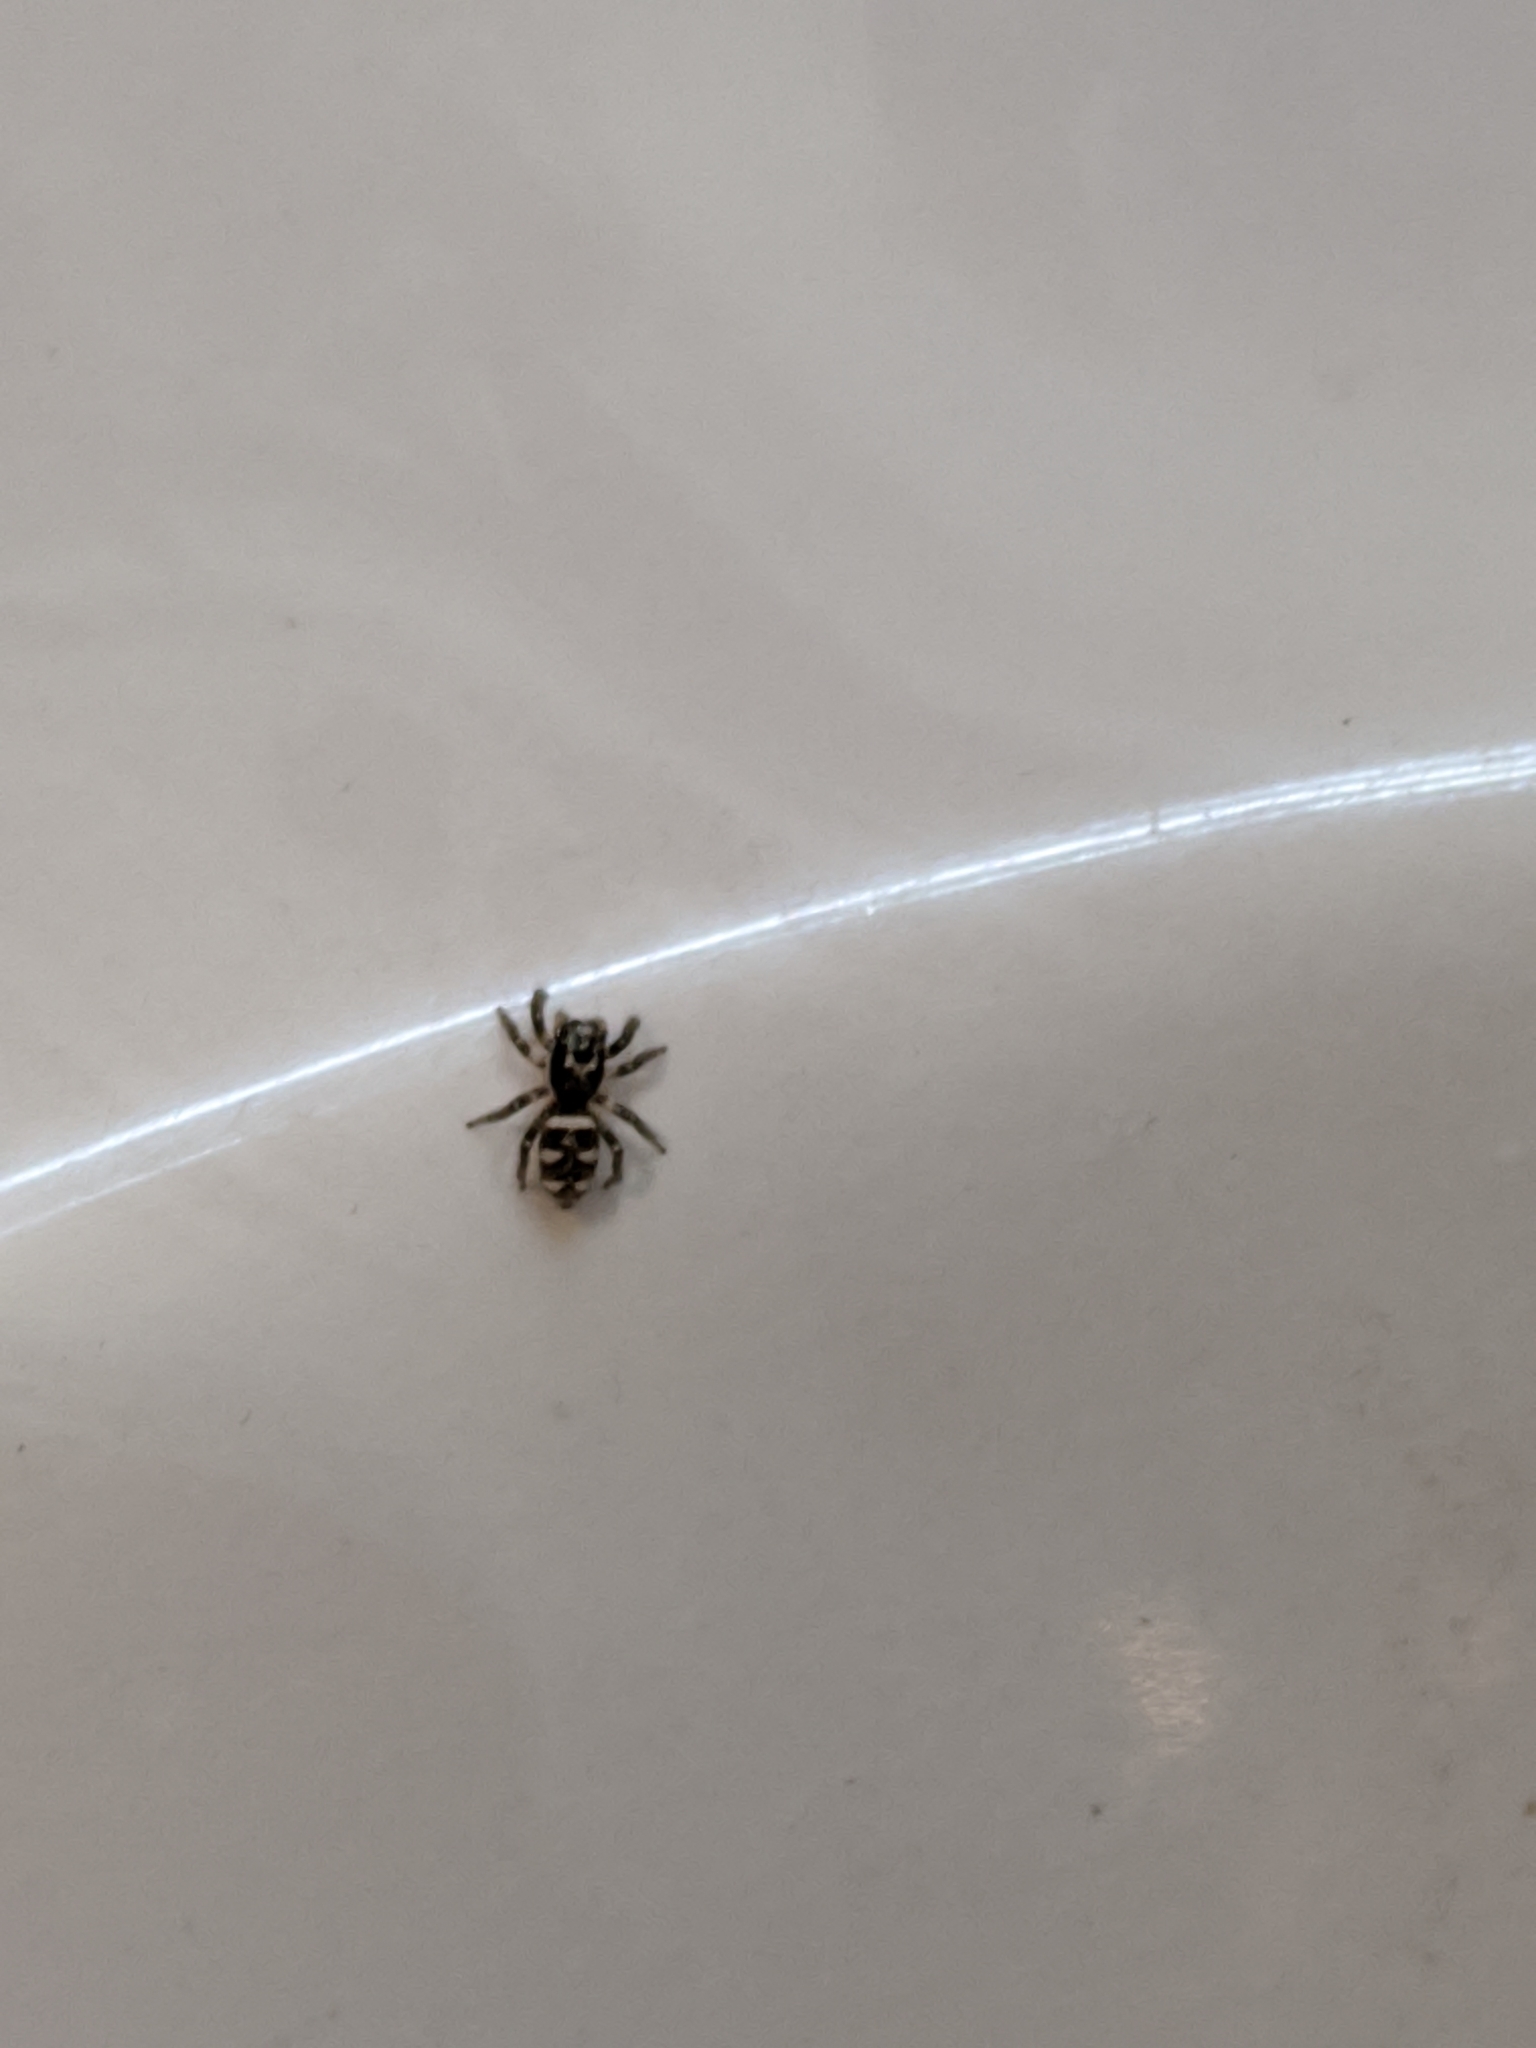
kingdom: Animalia
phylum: Arthropoda
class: Arachnida
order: Araneae
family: Salticidae
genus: Salticus
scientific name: Salticus scenicus
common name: Zebra jumper
